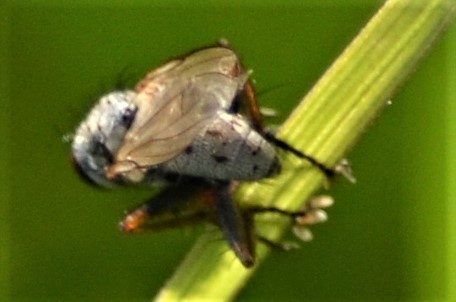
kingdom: Animalia
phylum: Arthropoda
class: Insecta
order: Diptera
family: Muscidae
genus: Coenosia
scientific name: Coenosia tigrina
